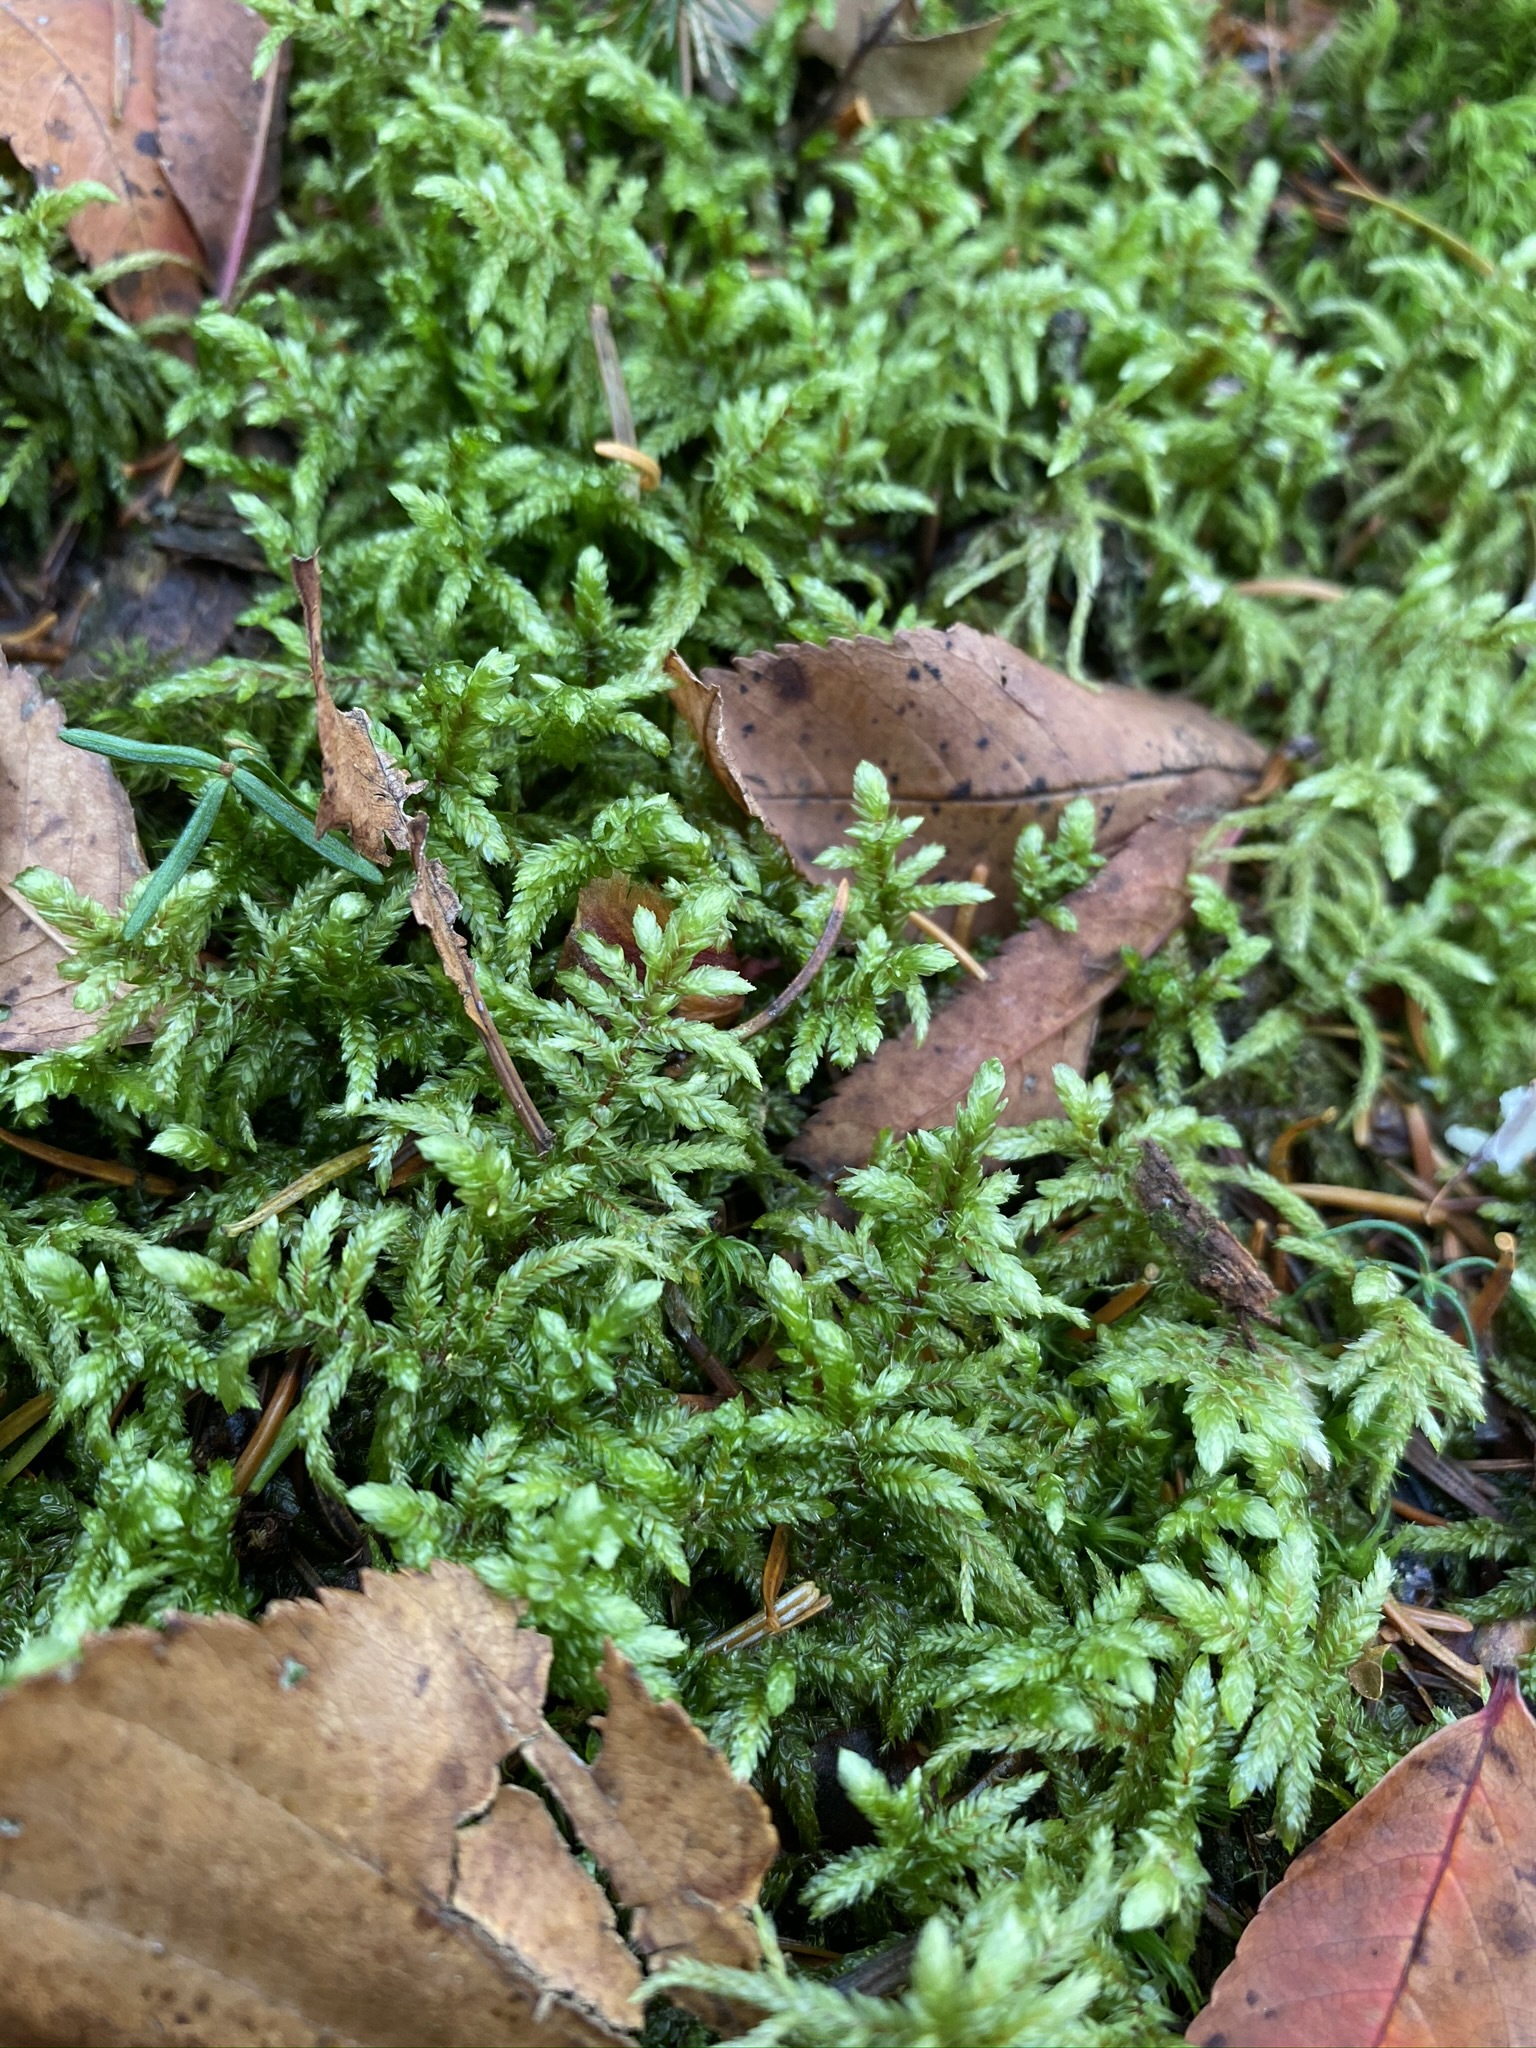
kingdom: Plantae
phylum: Bryophyta
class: Bryopsida
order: Hypnales
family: Hylocomiaceae
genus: Pleurozium
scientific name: Pleurozium schreberi
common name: Red-stemmed feather moss
